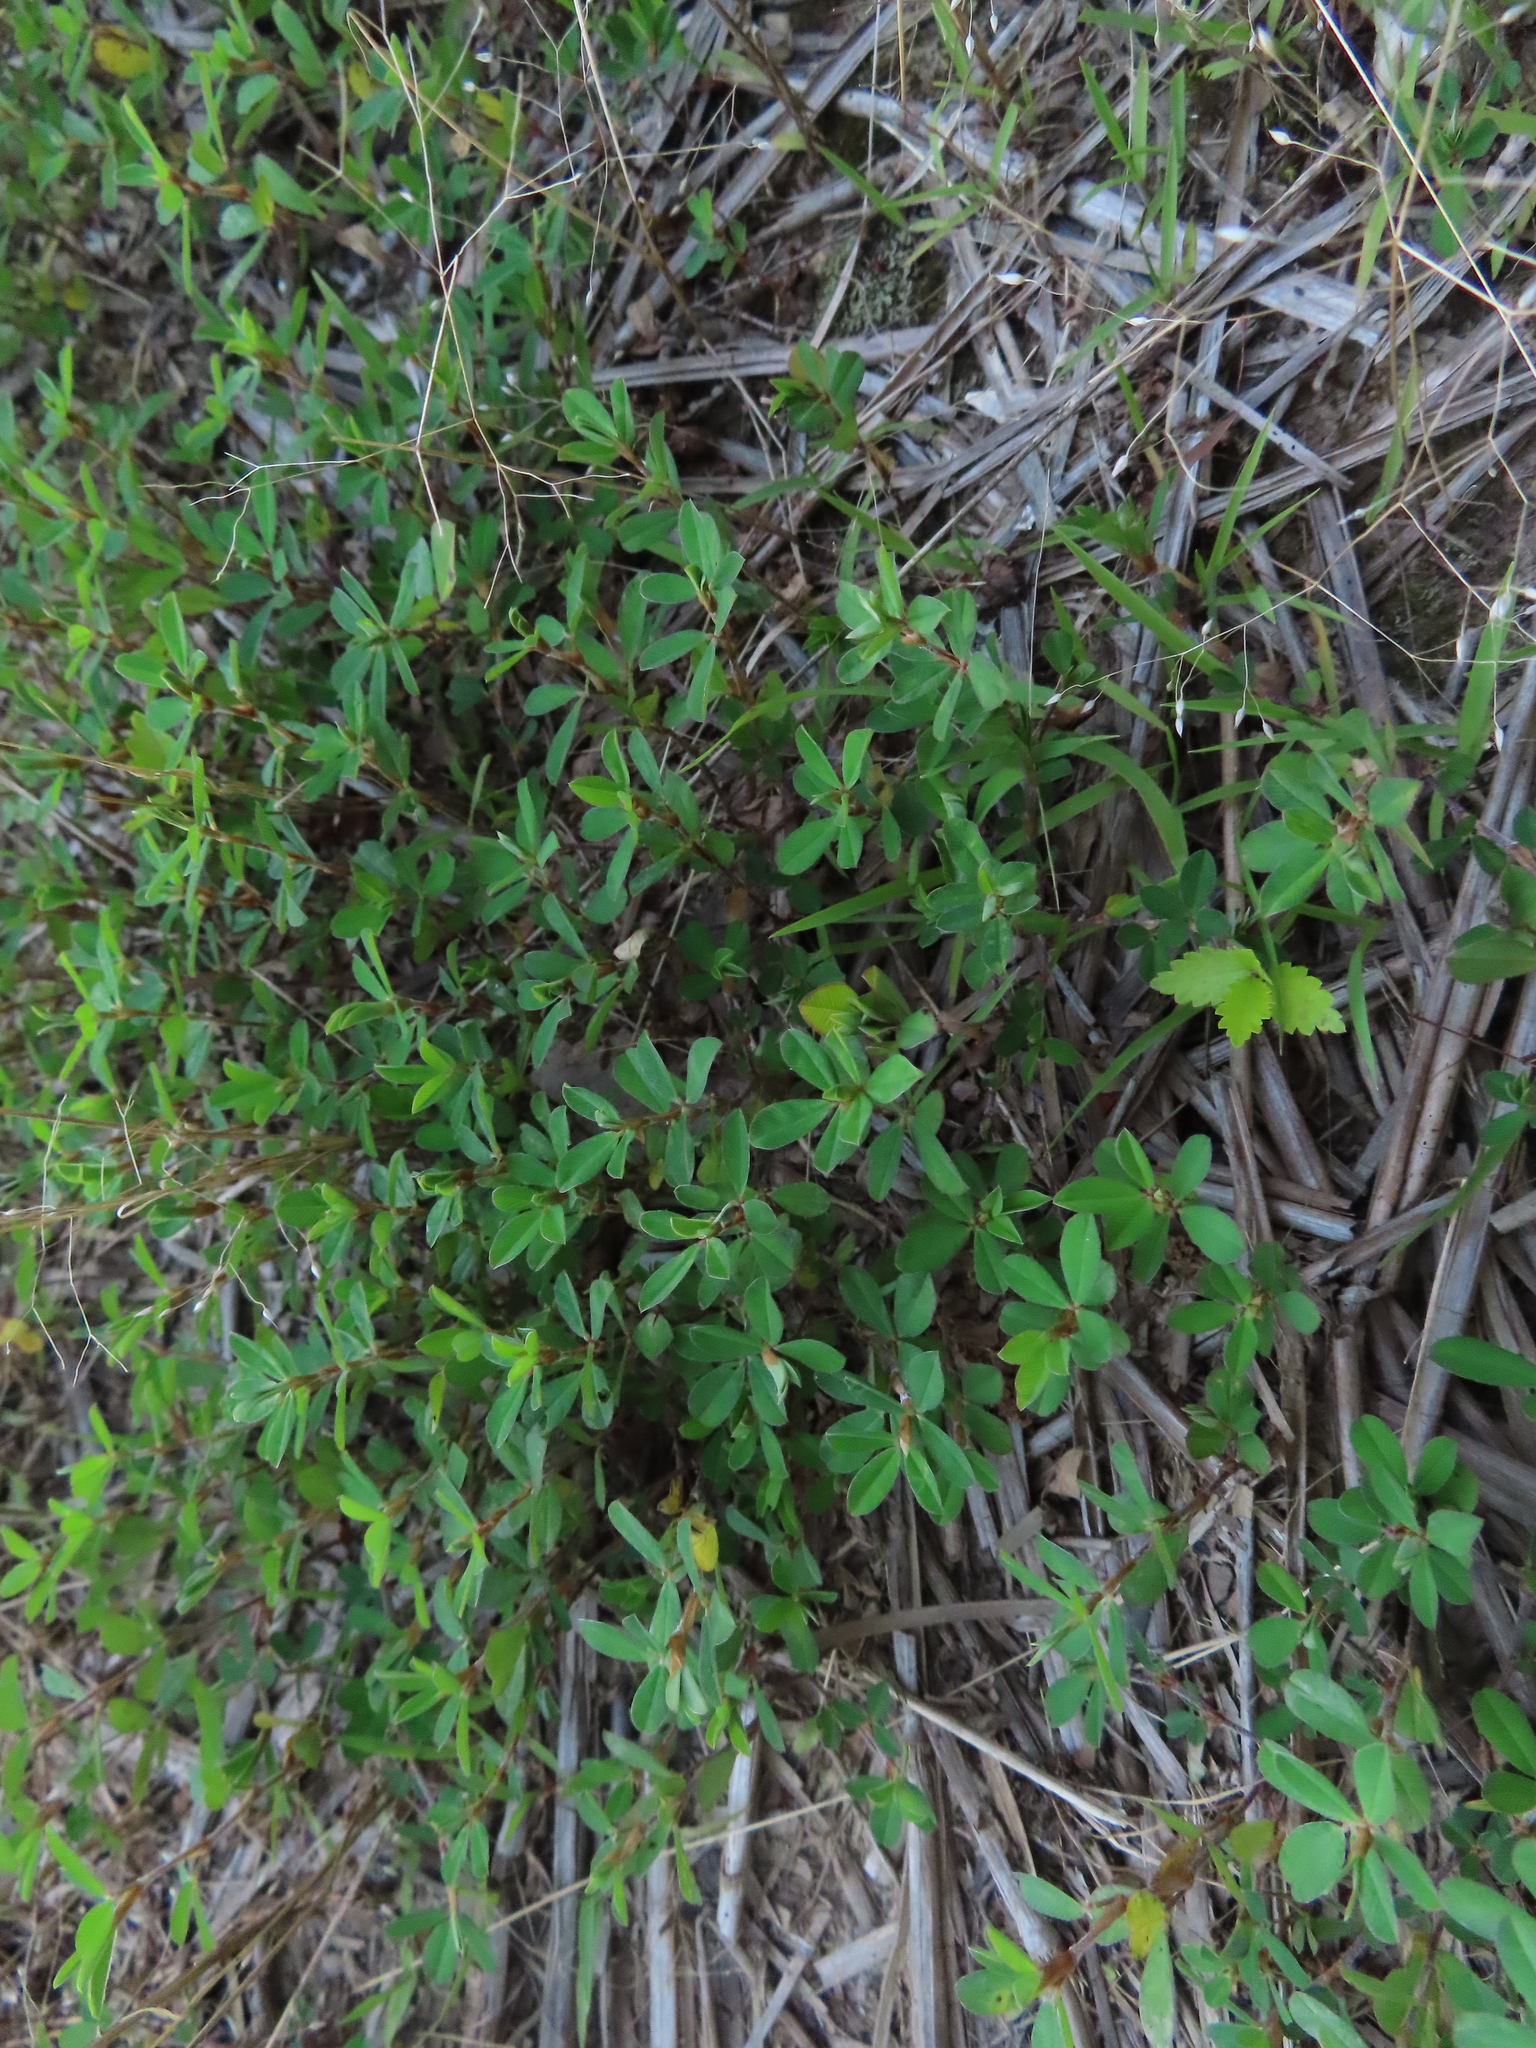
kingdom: Plantae
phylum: Tracheophyta
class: Magnoliopsida
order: Fabales
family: Fabaceae
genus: Kummerowia
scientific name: Kummerowia striata
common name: Japanese clover
